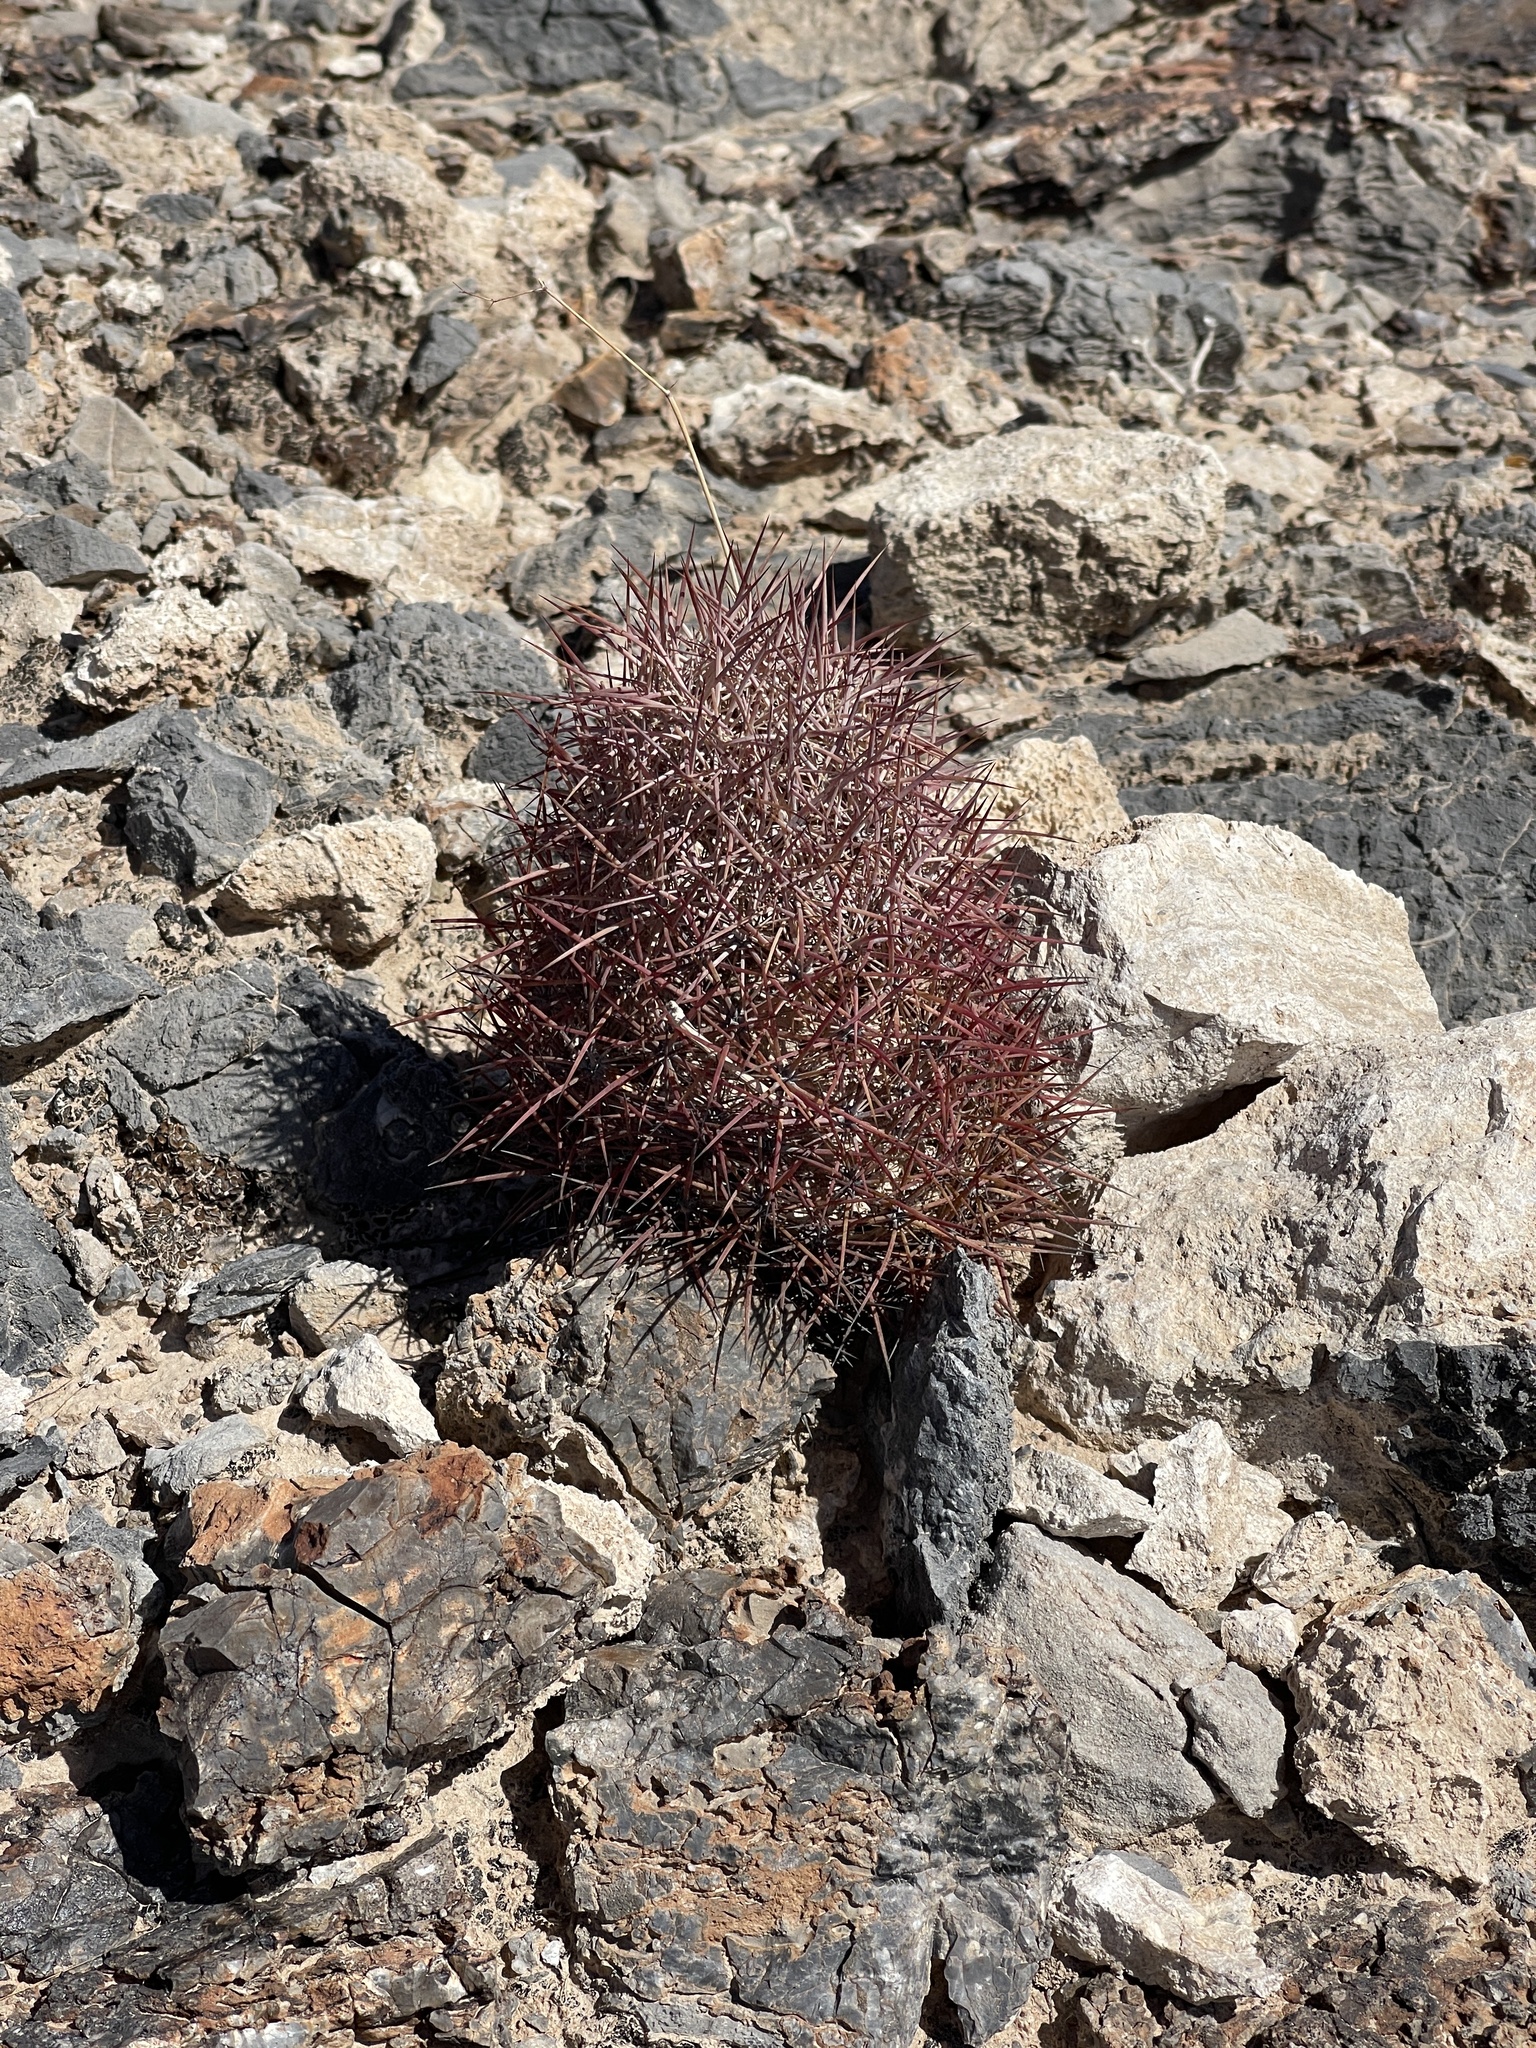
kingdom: Plantae
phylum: Tracheophyta
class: Magnoliopsida
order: Caryophyllales
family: Cactaceae
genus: Sclerocactus
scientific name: Sclerocactus johnsonii
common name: Eight-spine fishhook cactus
